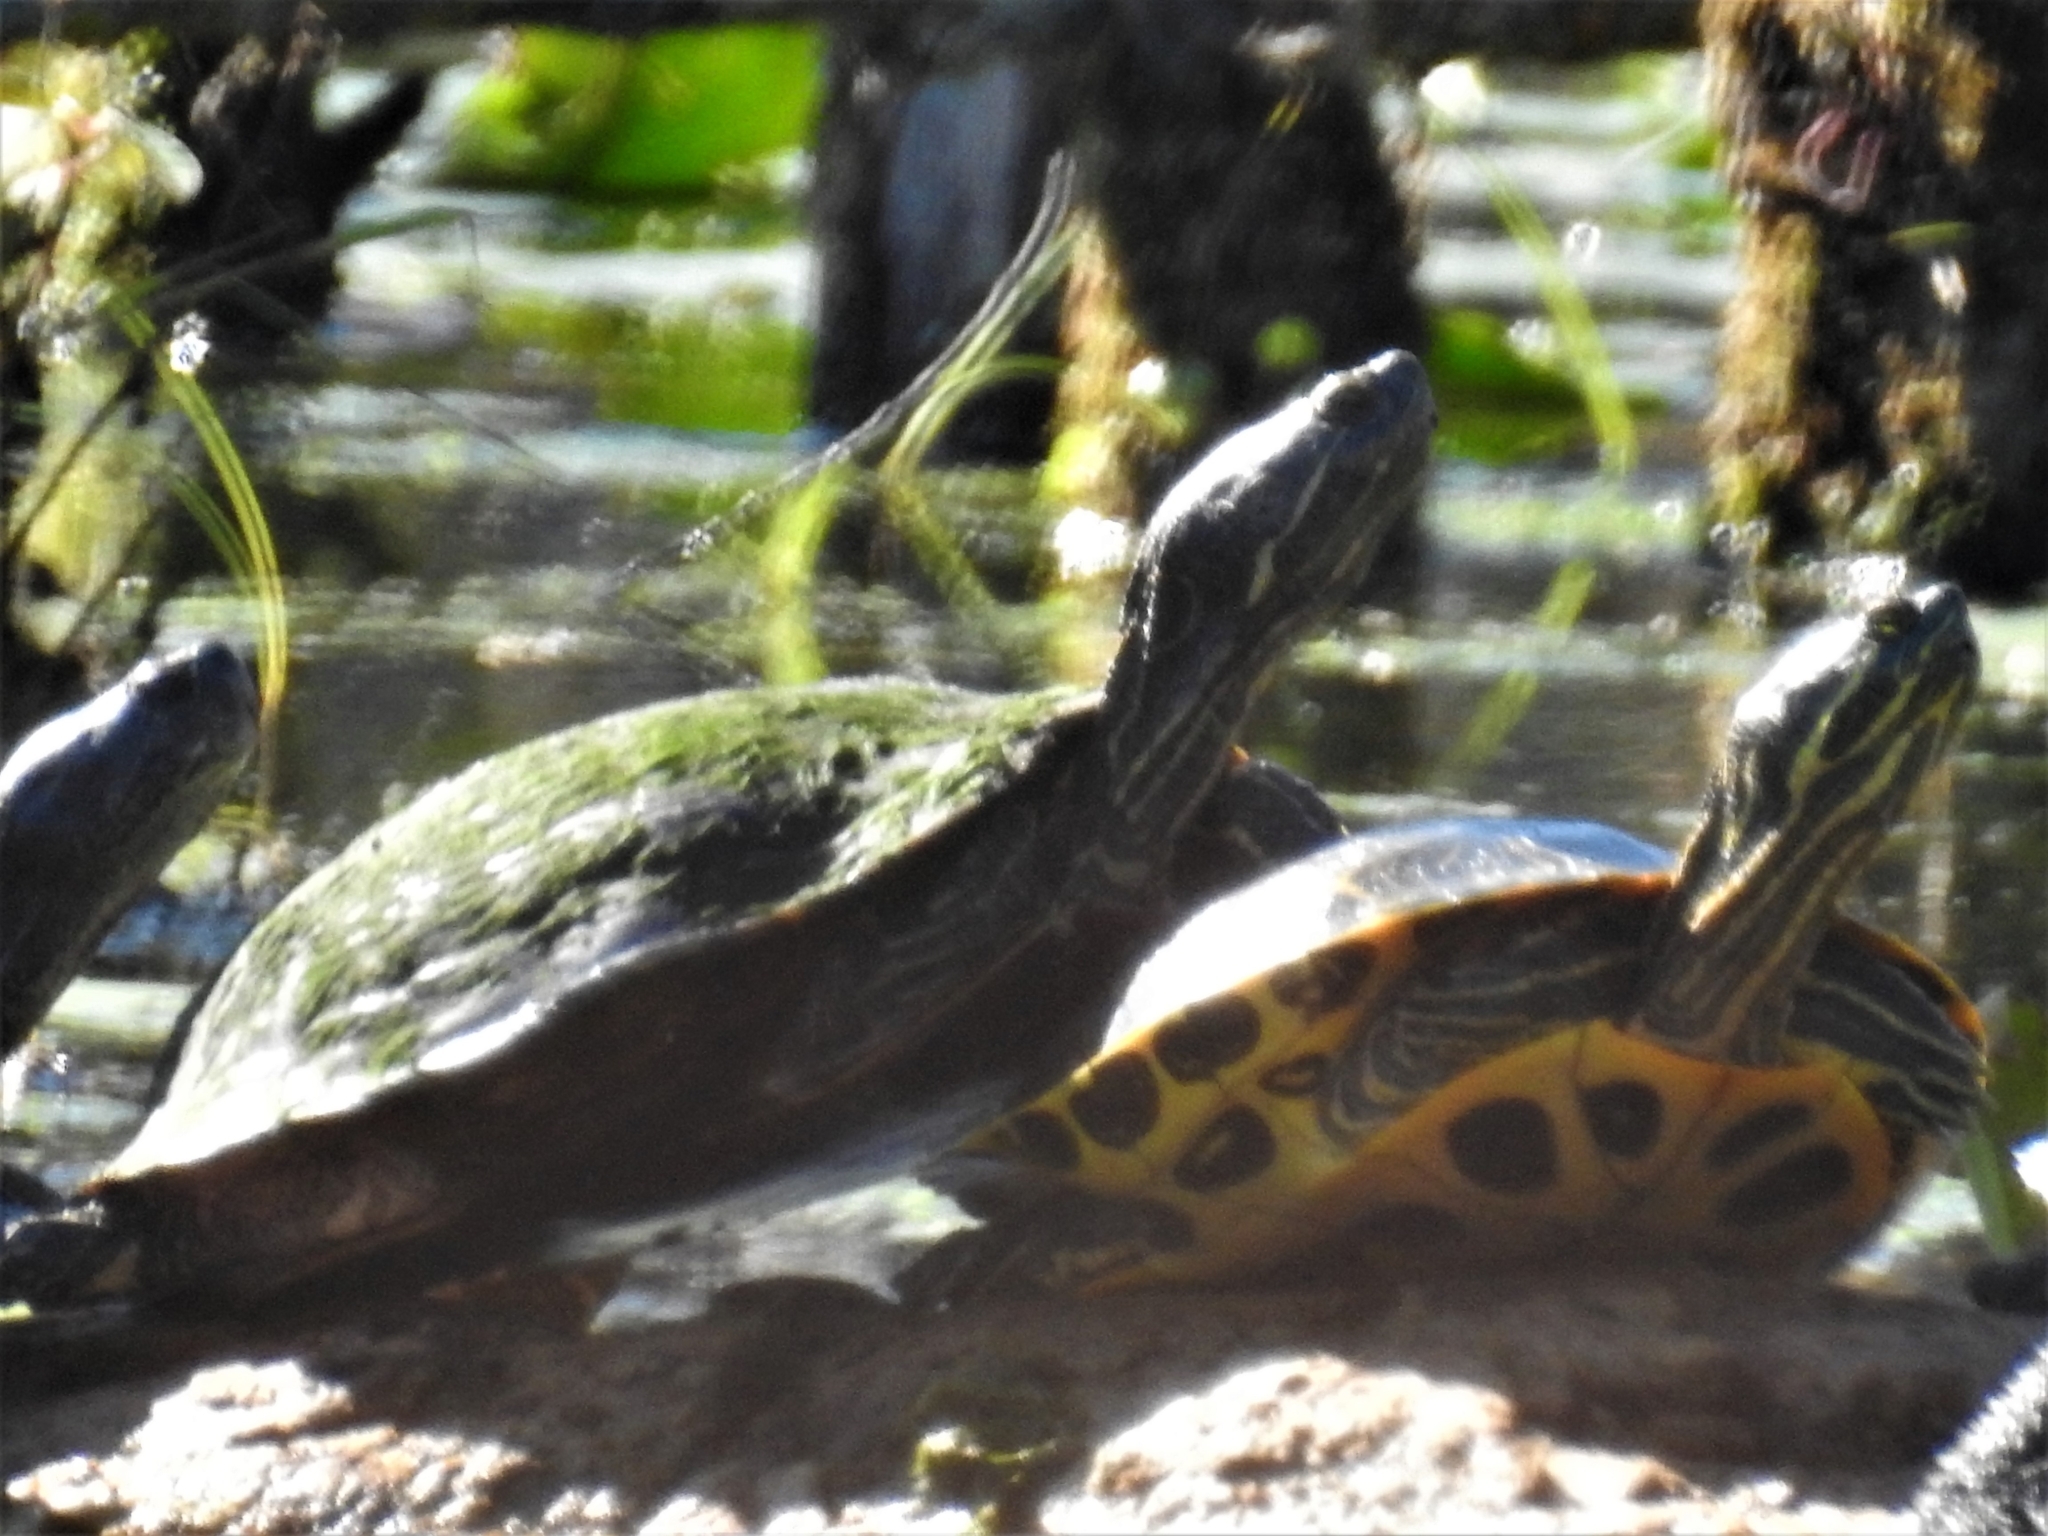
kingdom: Animalia
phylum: Chordata
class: Testudines
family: Emydidae
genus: Pseudemys
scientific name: Pseudemys concinna
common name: Eastern river cooter
